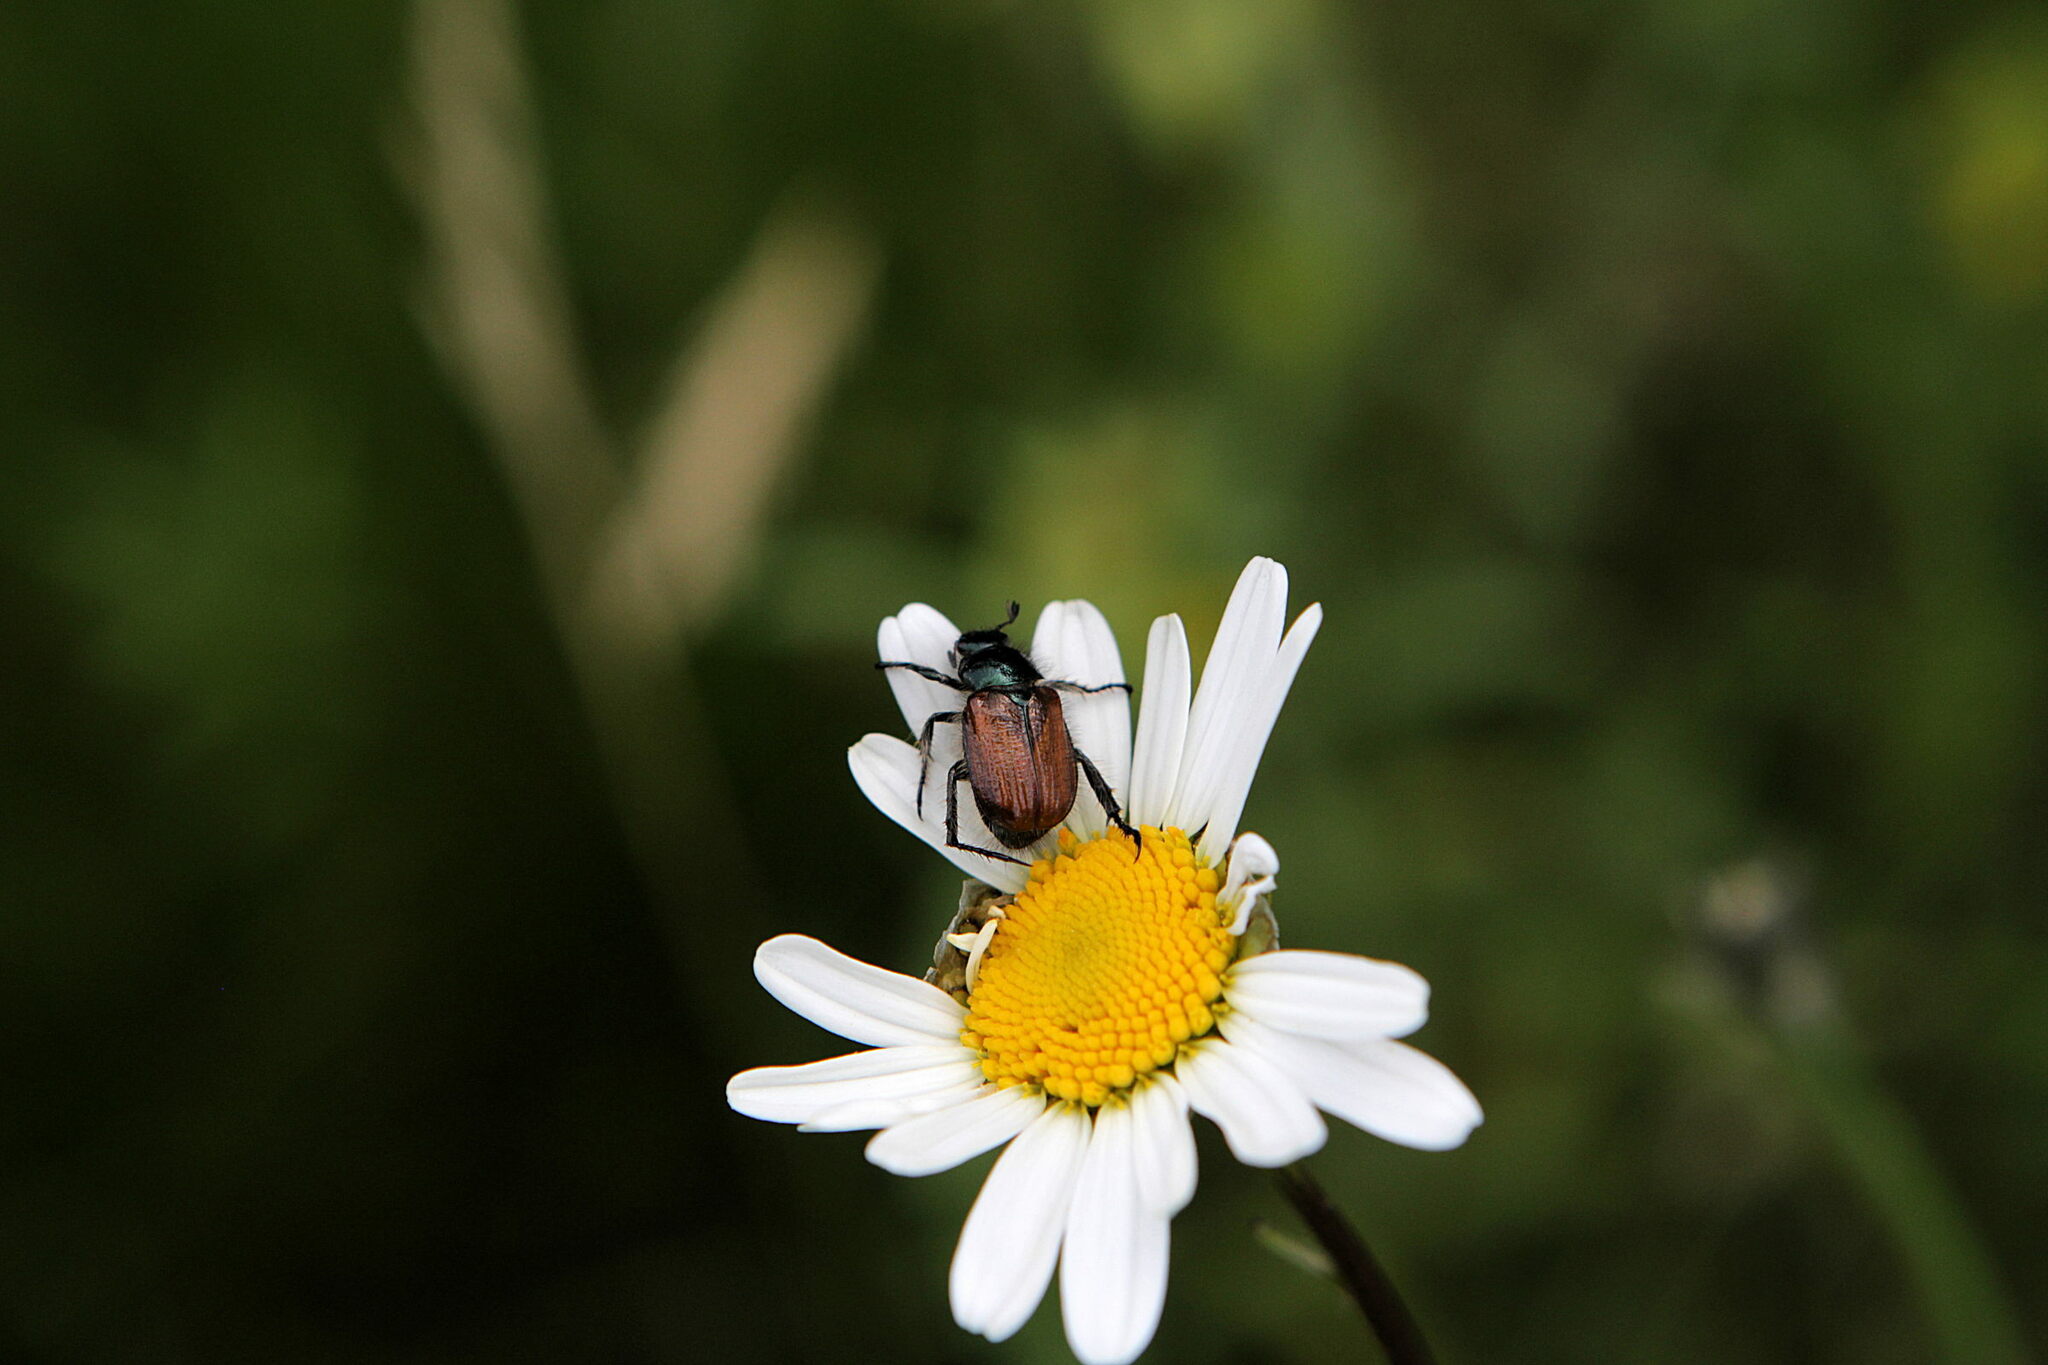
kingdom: Animalia
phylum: Arthropoda
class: Insecta
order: Coleoptera
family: Scarabaeidae
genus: Phyllopertha
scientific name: Phyllopertha horticola
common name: Garden chafer
